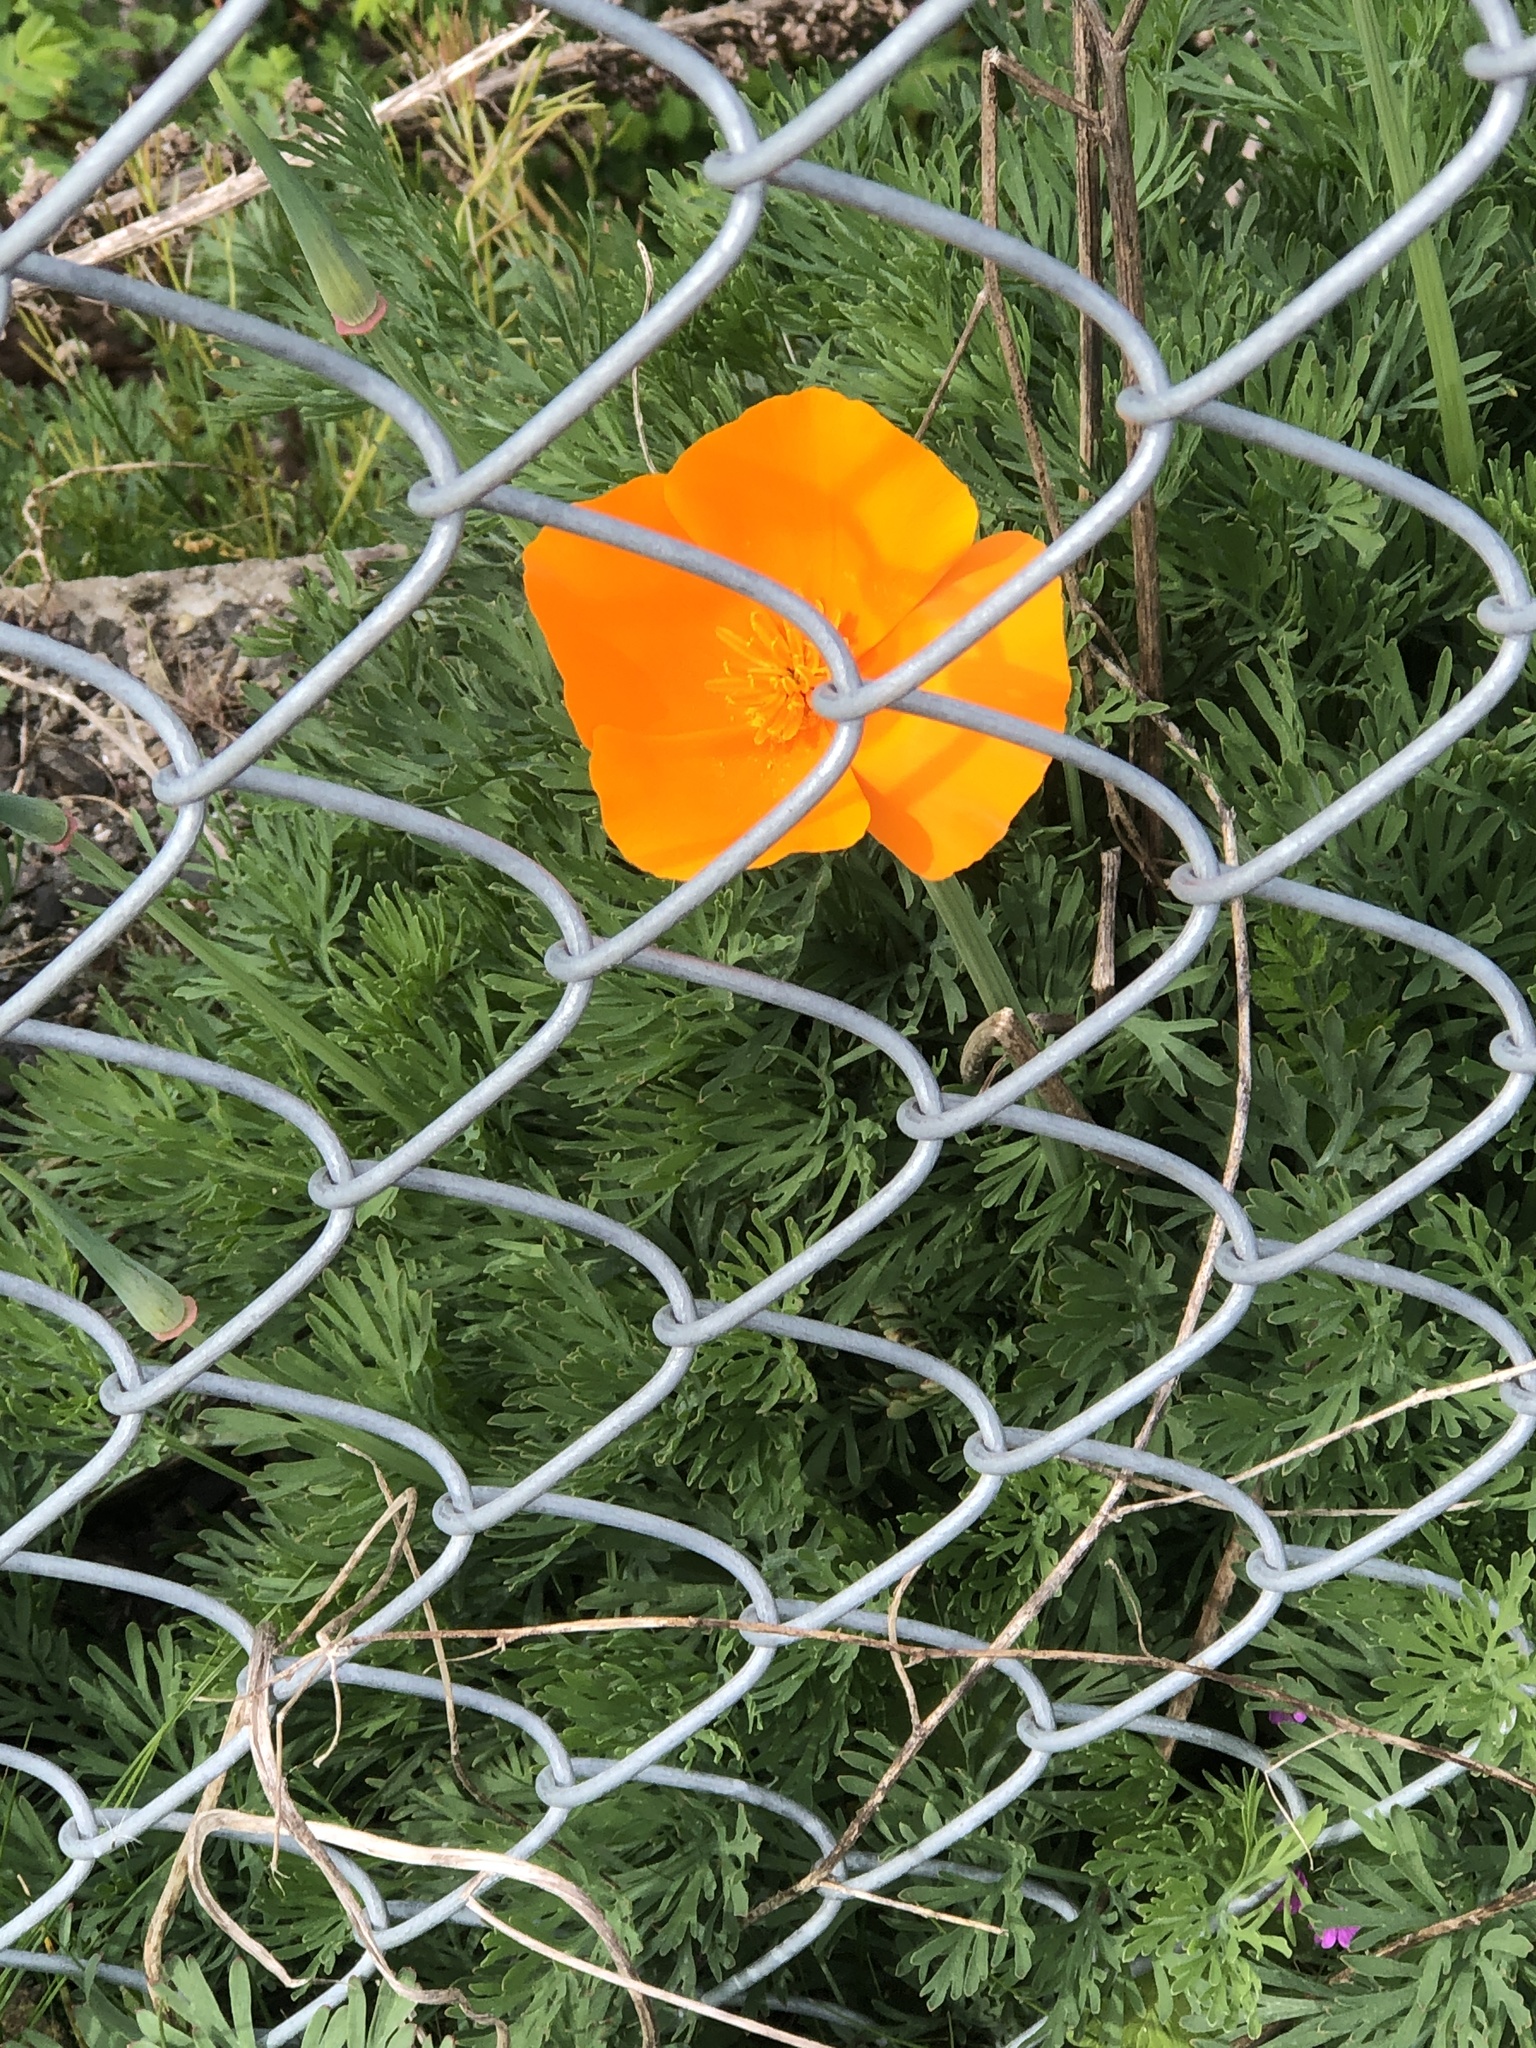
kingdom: Plantae
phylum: Tracheophyta
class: Magnoliopsida
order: Ranunculales
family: Papaveraceae
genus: Eschscholzia
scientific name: Eschscholzia californica
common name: California poppy
